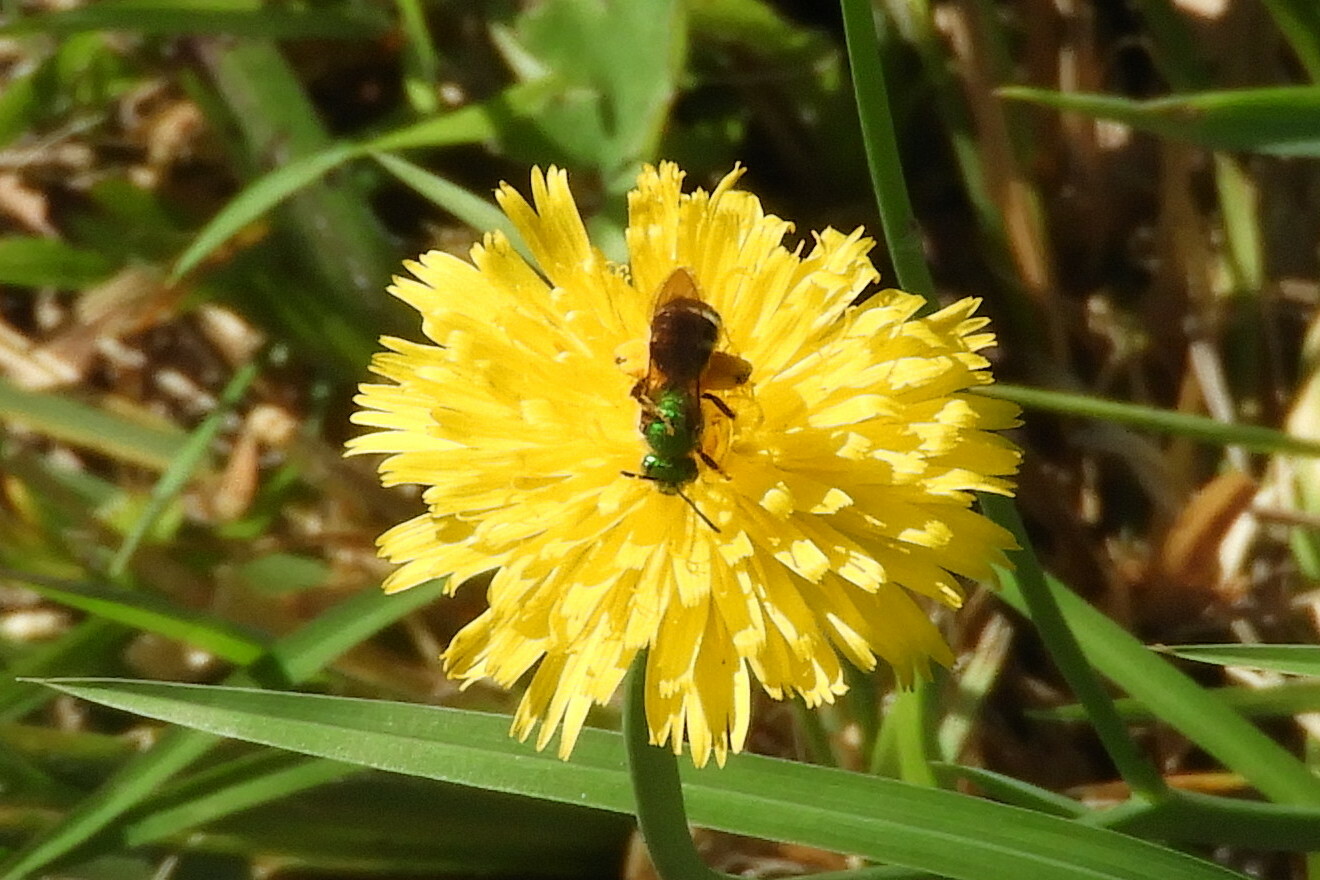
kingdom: Animalia
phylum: Arthropoda
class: Insecta
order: Hymenoptera
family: Halictidae
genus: Agapostemon
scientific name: Agapostemon virescens
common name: Bicolored striped sweat bee
